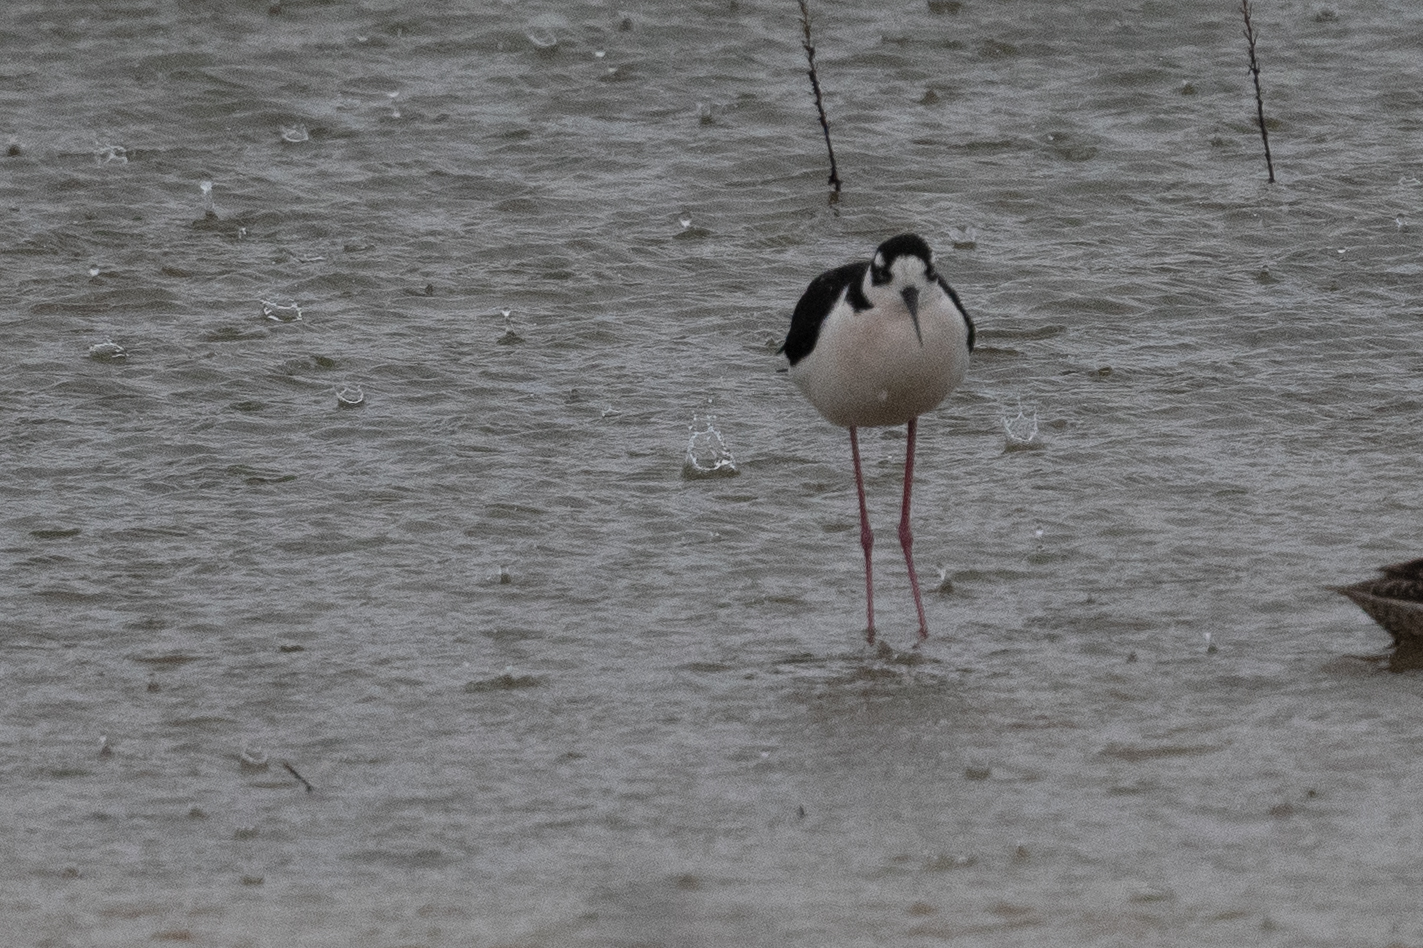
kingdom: Animalia
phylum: Chordata
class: Aves
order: Charadriiformes
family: Recurvirostridae
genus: Himantopus
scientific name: Himantopus mexicanus
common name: Black-necked stilt
